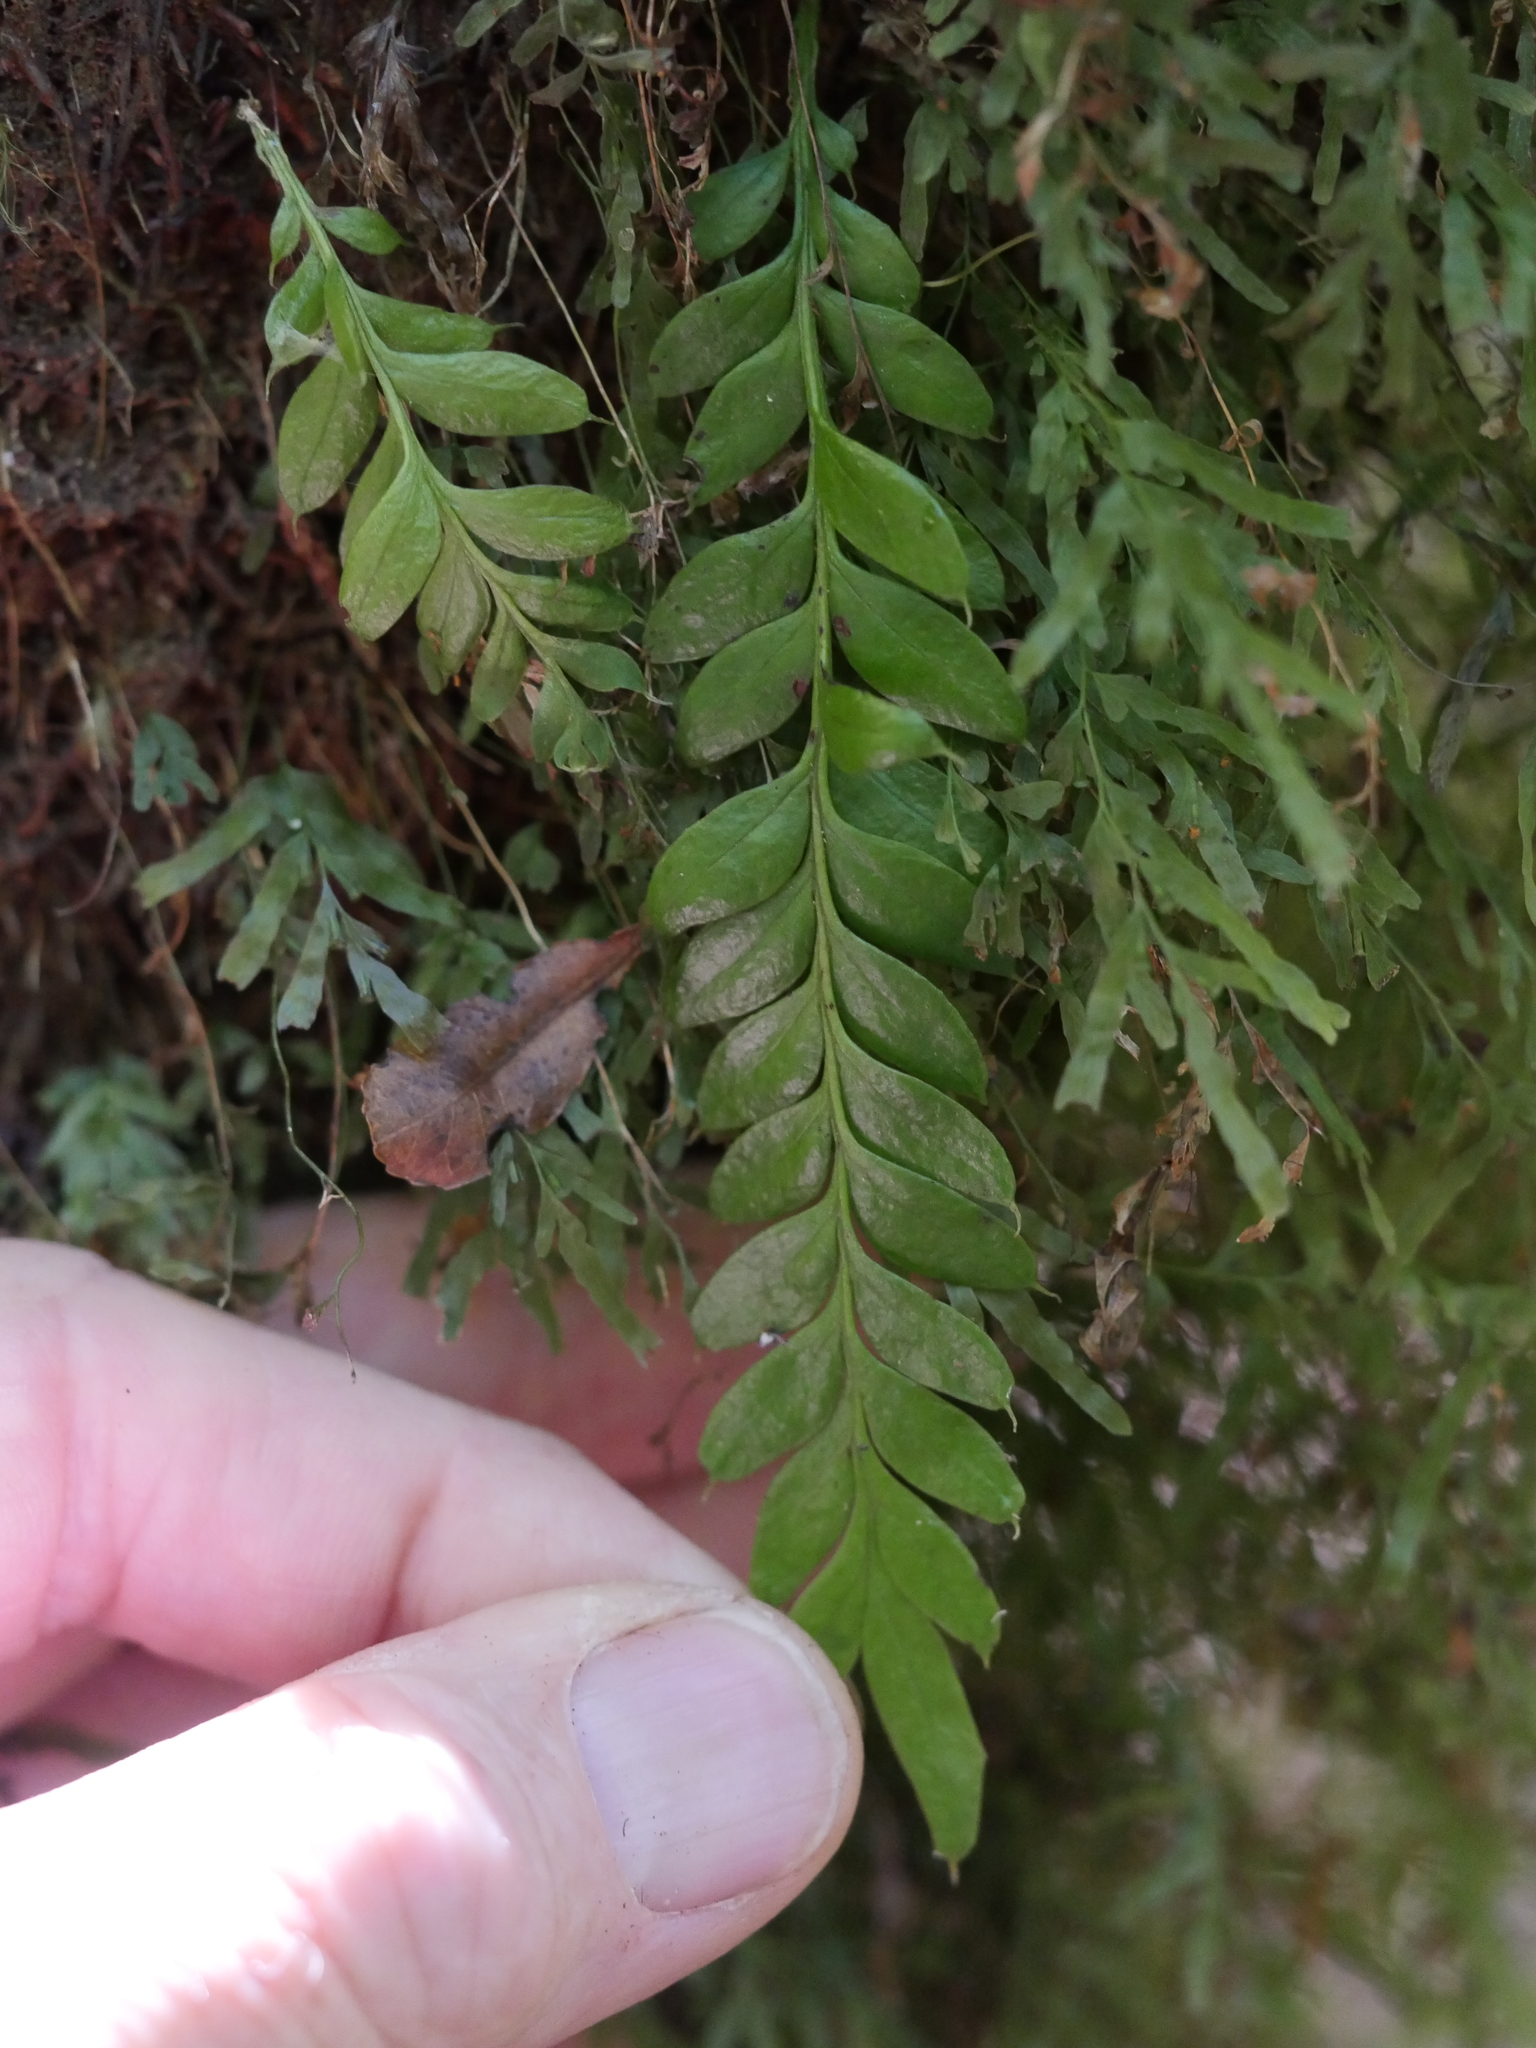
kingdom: Plantae
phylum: Tracheophyta
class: Polypodiopsida
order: Psilotales
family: Psilotaceae
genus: Tmesipteris
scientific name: Tmesipteris lanceolata
